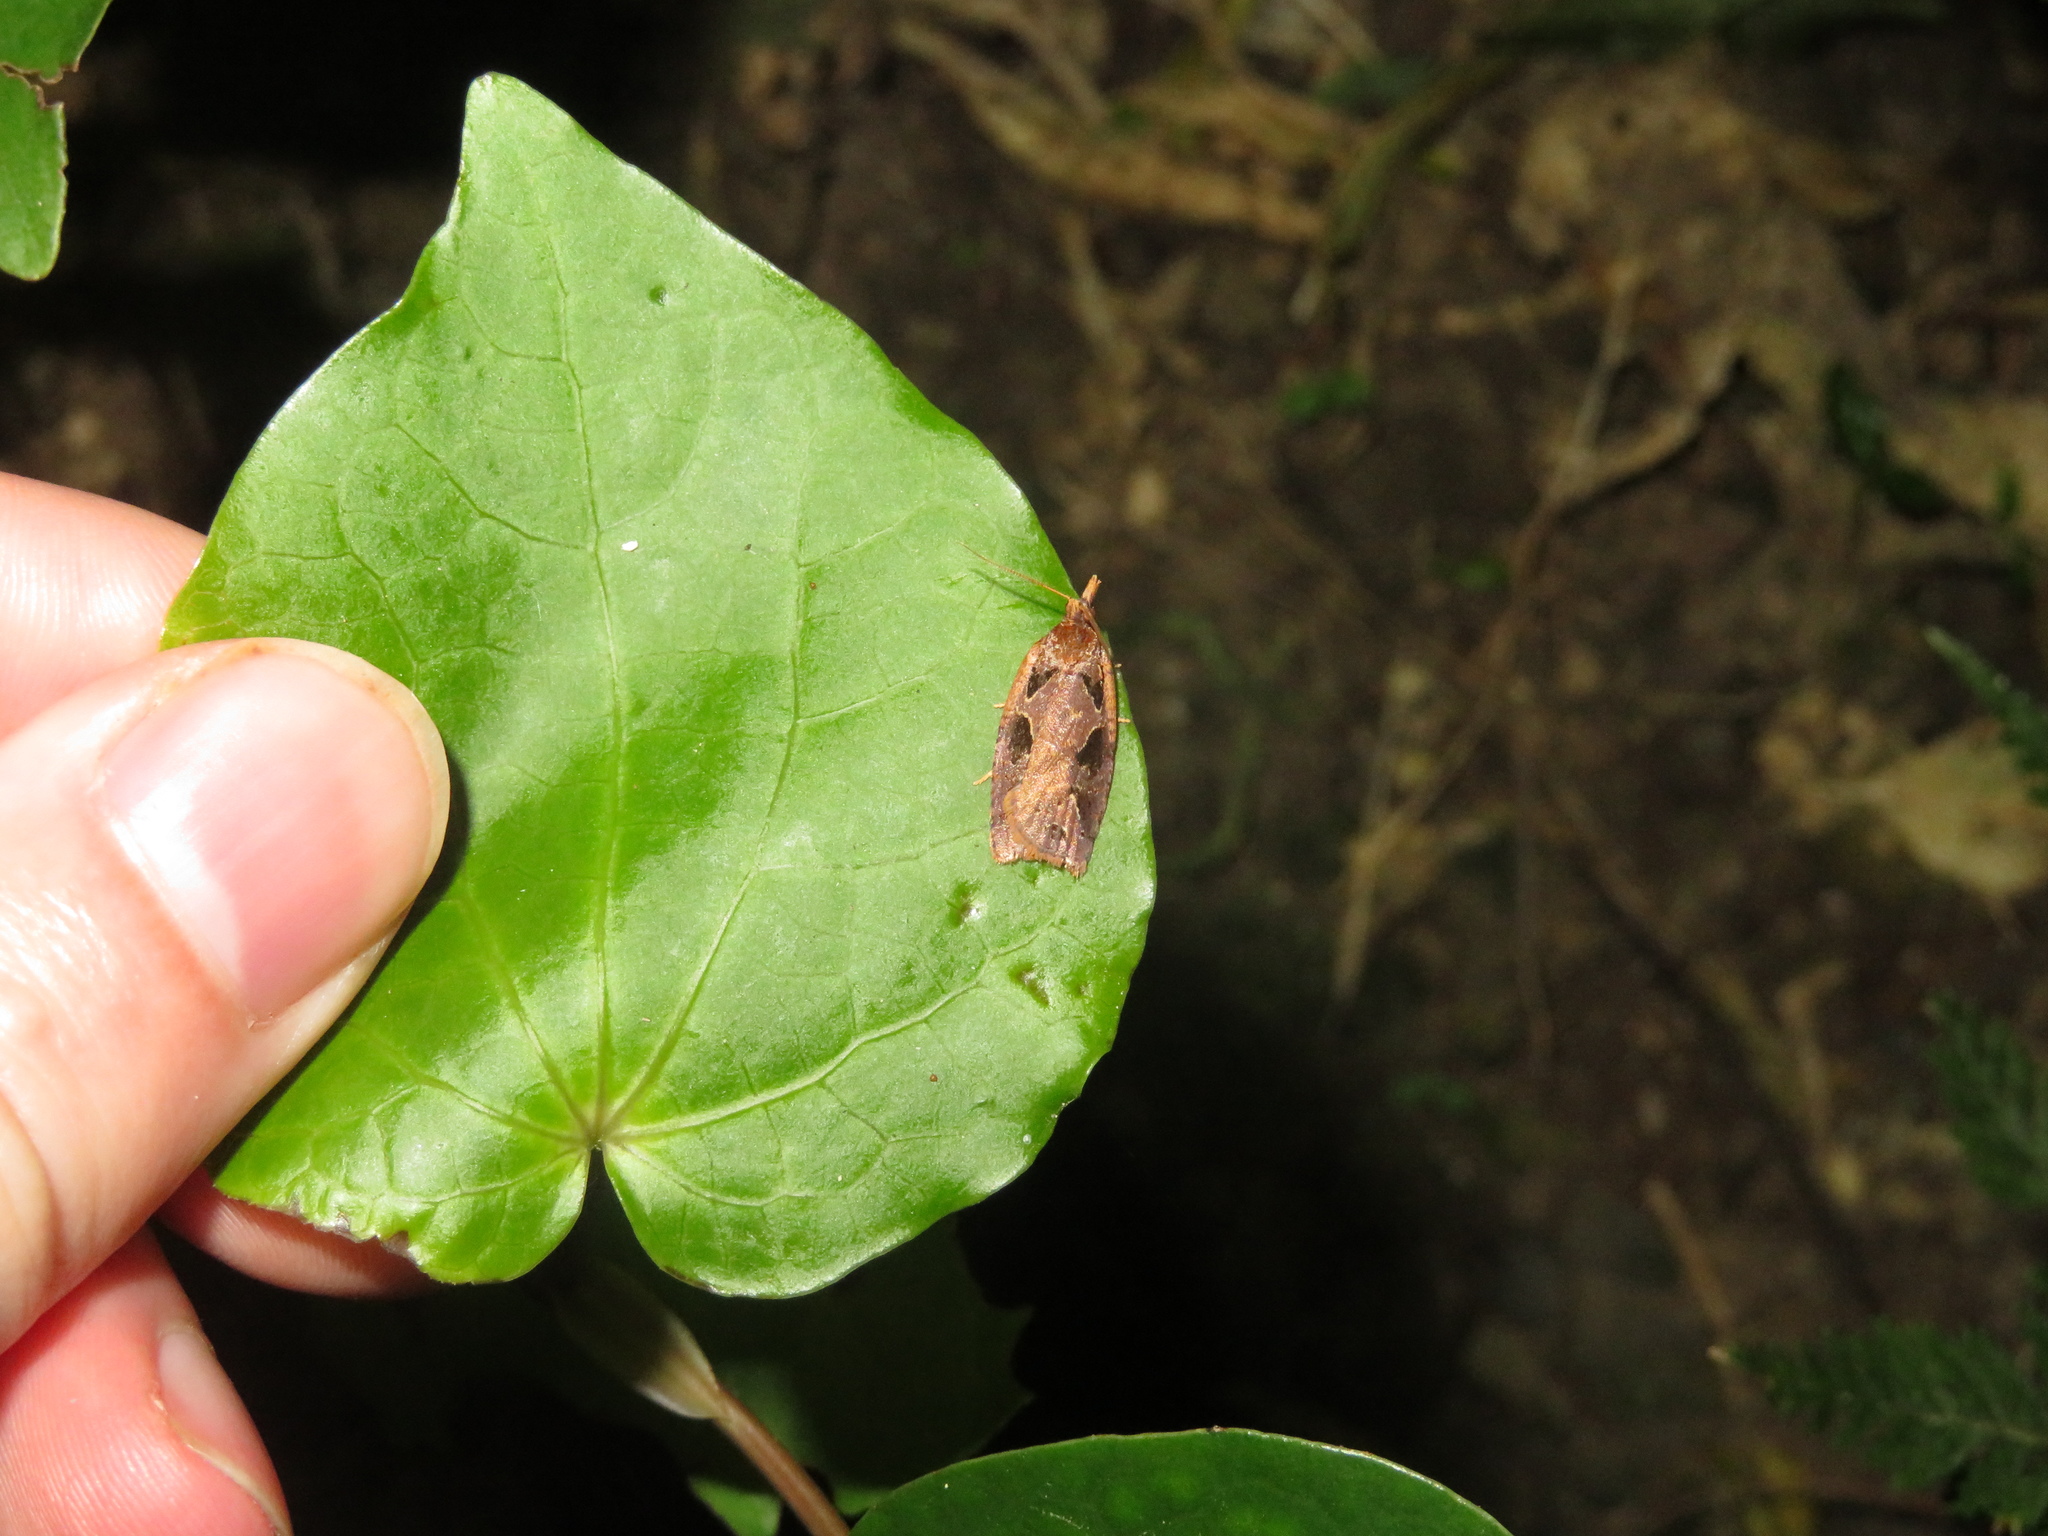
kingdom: Animalia
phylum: Arthropoda
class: Insecta
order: Lepidoptera
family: Tortricidae
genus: Ctenopseustis
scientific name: Ctenopseustis fraterna
